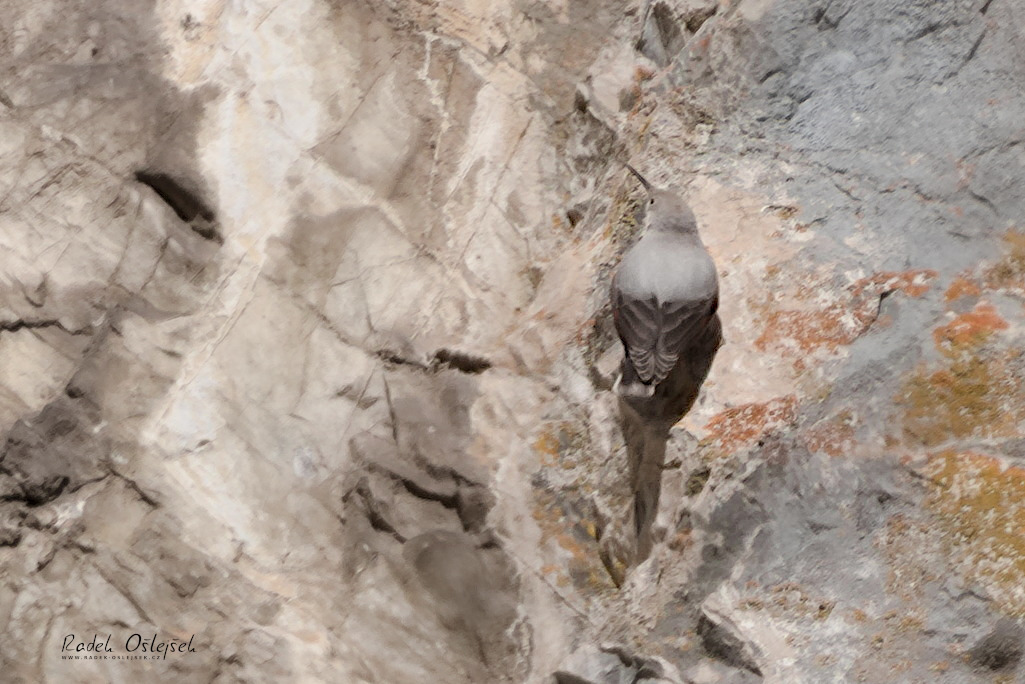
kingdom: Animalia
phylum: Chordata
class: Aves
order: Passeriformes
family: Tichodromidae
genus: Tichodroma
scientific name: Tichodroma muraria
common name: Wallcreeper
